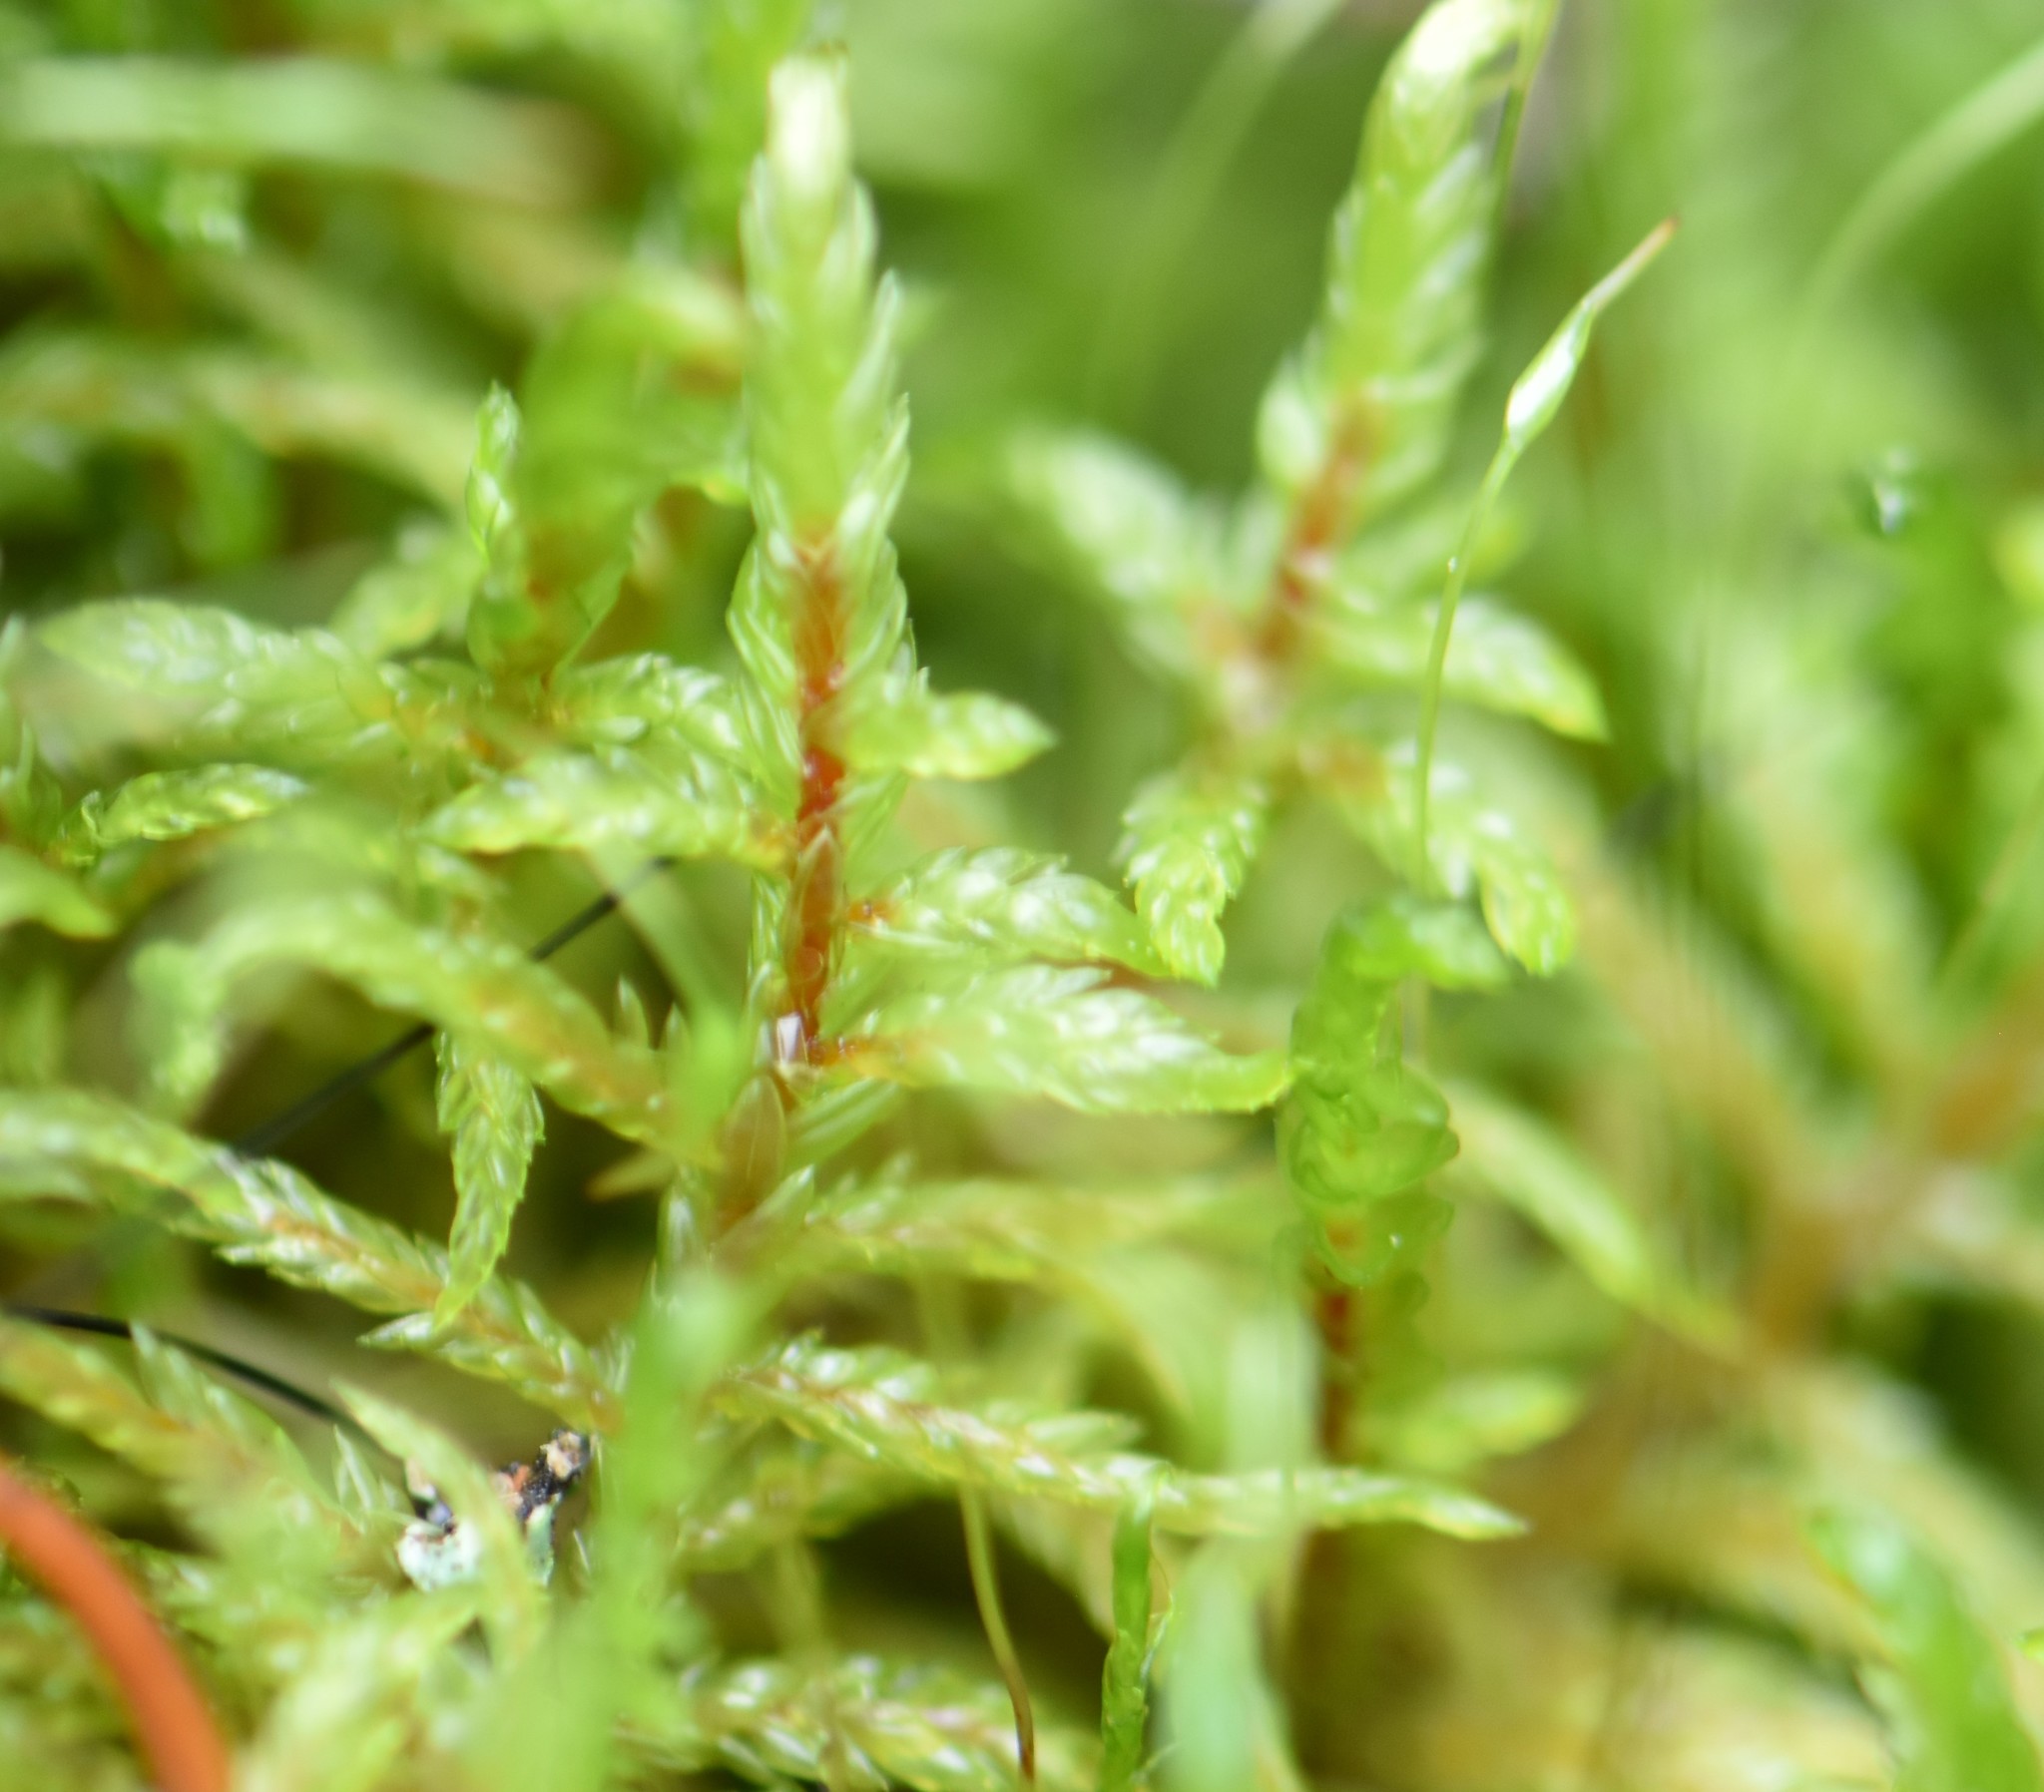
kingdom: Plantae
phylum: Bryophyta
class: Bryopsida
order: Hypnales
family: Hylocomiaceae
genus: Pleurozium
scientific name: Pleurozium schreberi
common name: Red-stemmed feather moss
